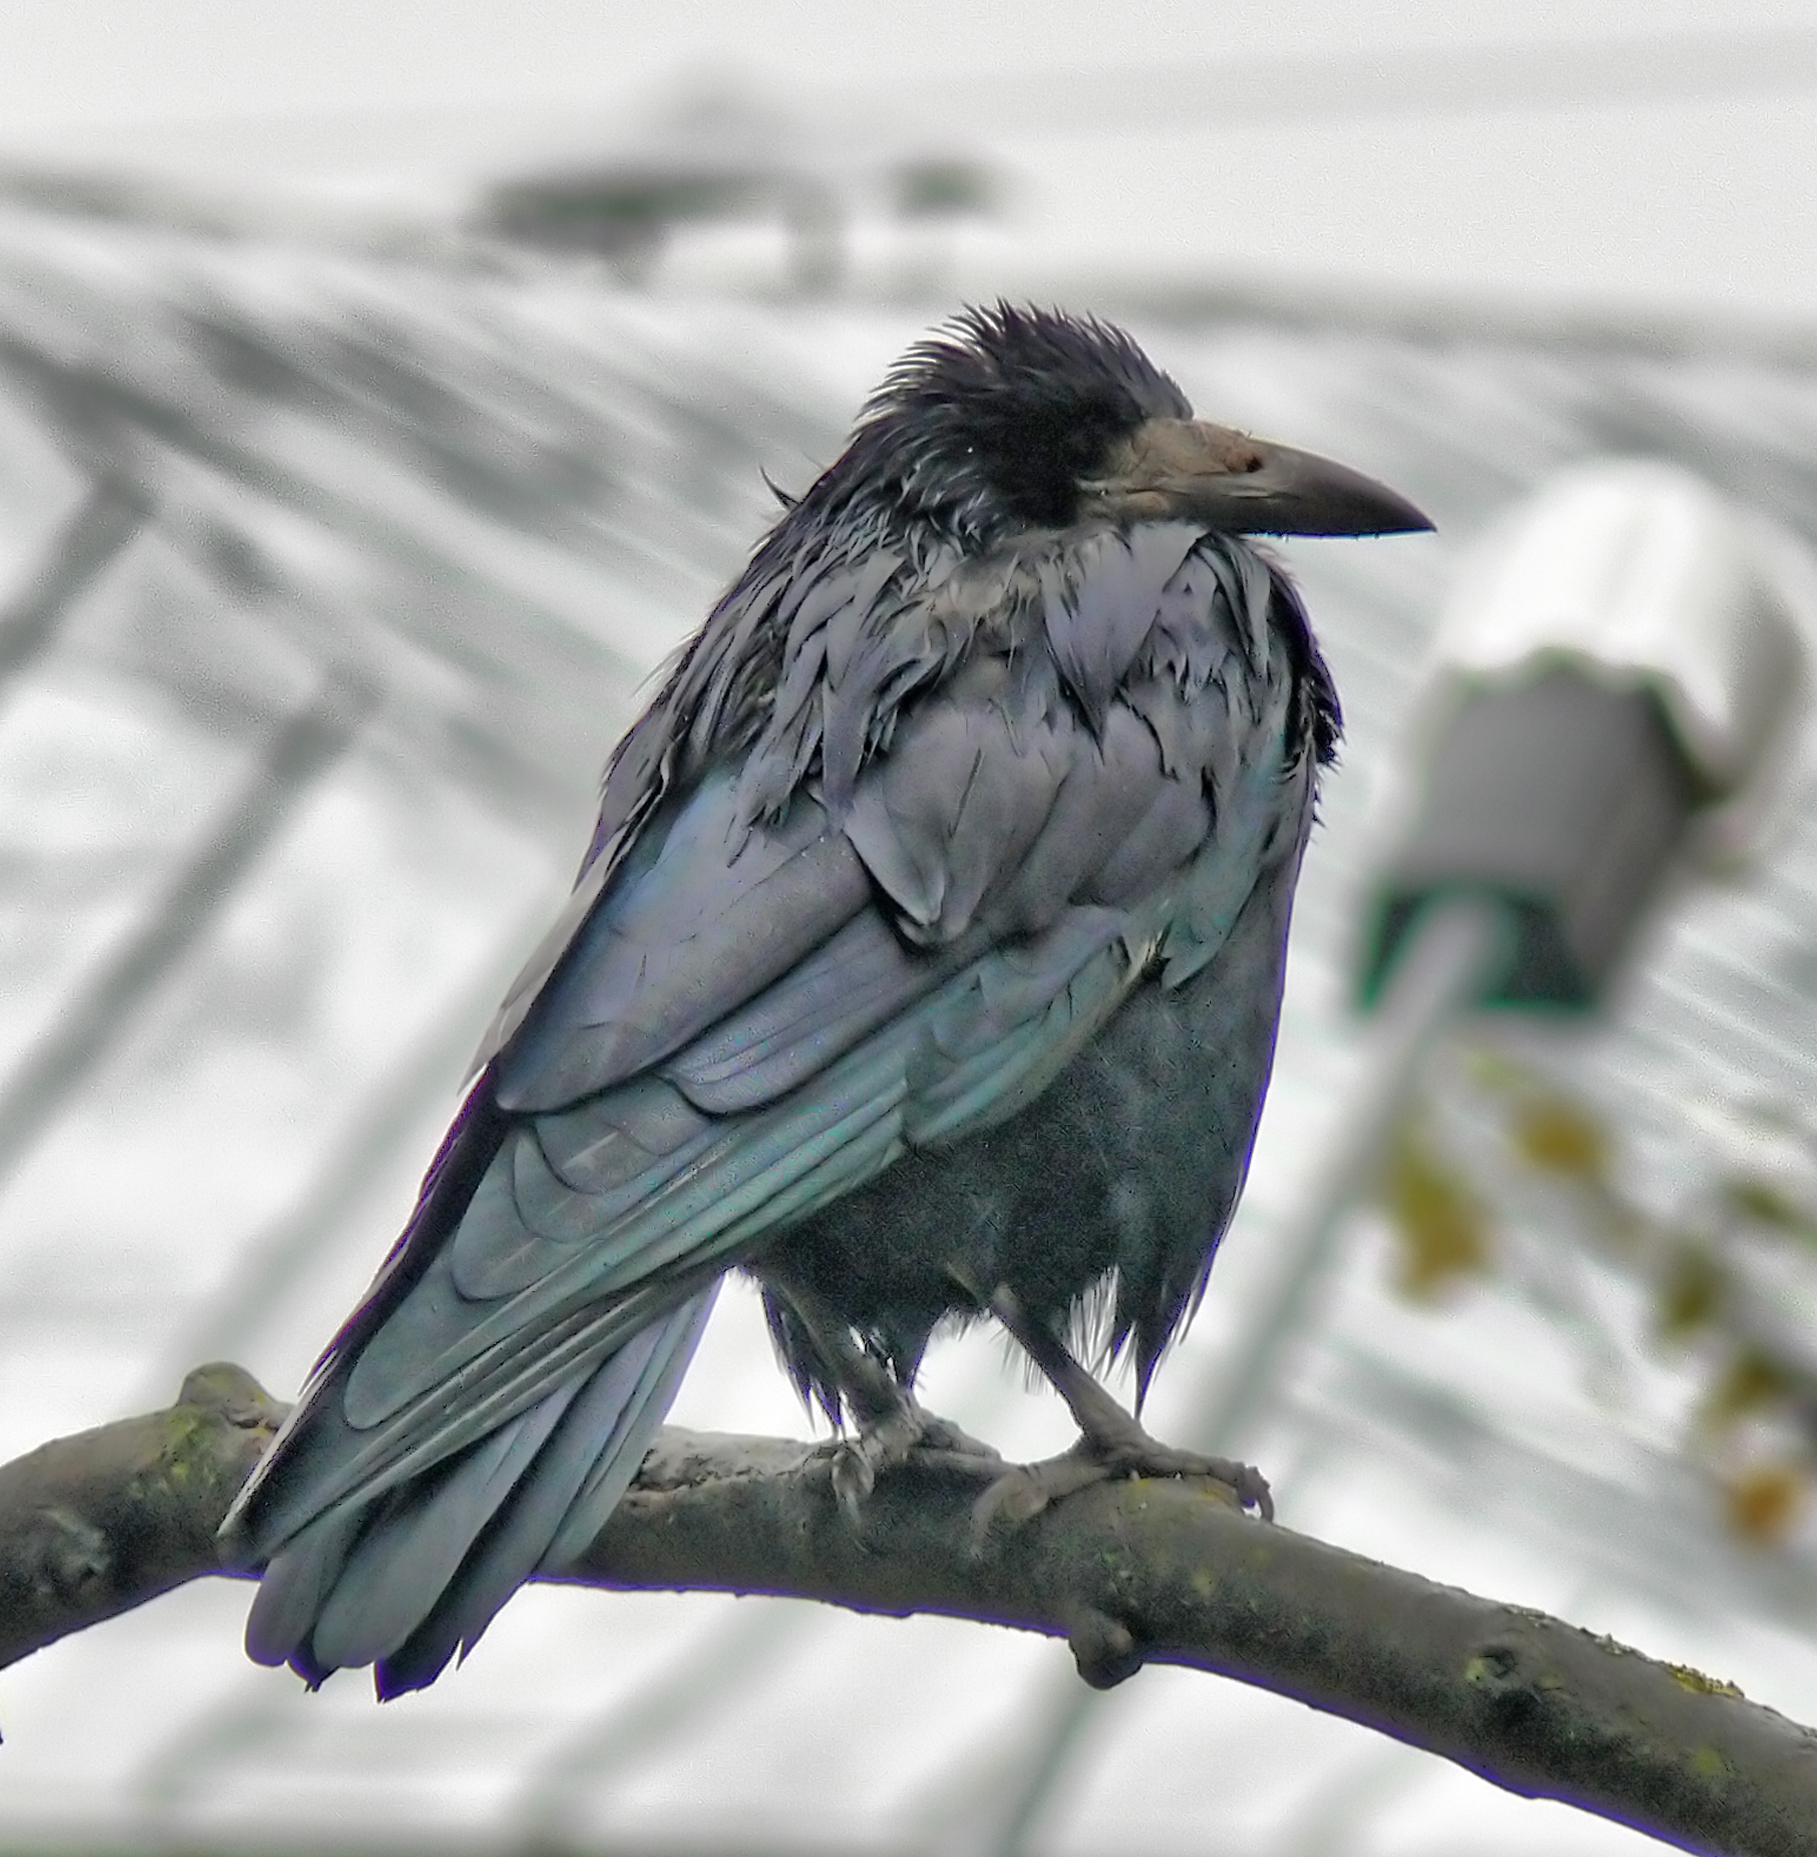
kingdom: Animalia
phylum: Chordata
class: Aves
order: Passeriformes
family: Corvidae
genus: Corvus
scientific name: Corvus frugilegus
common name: Rook
